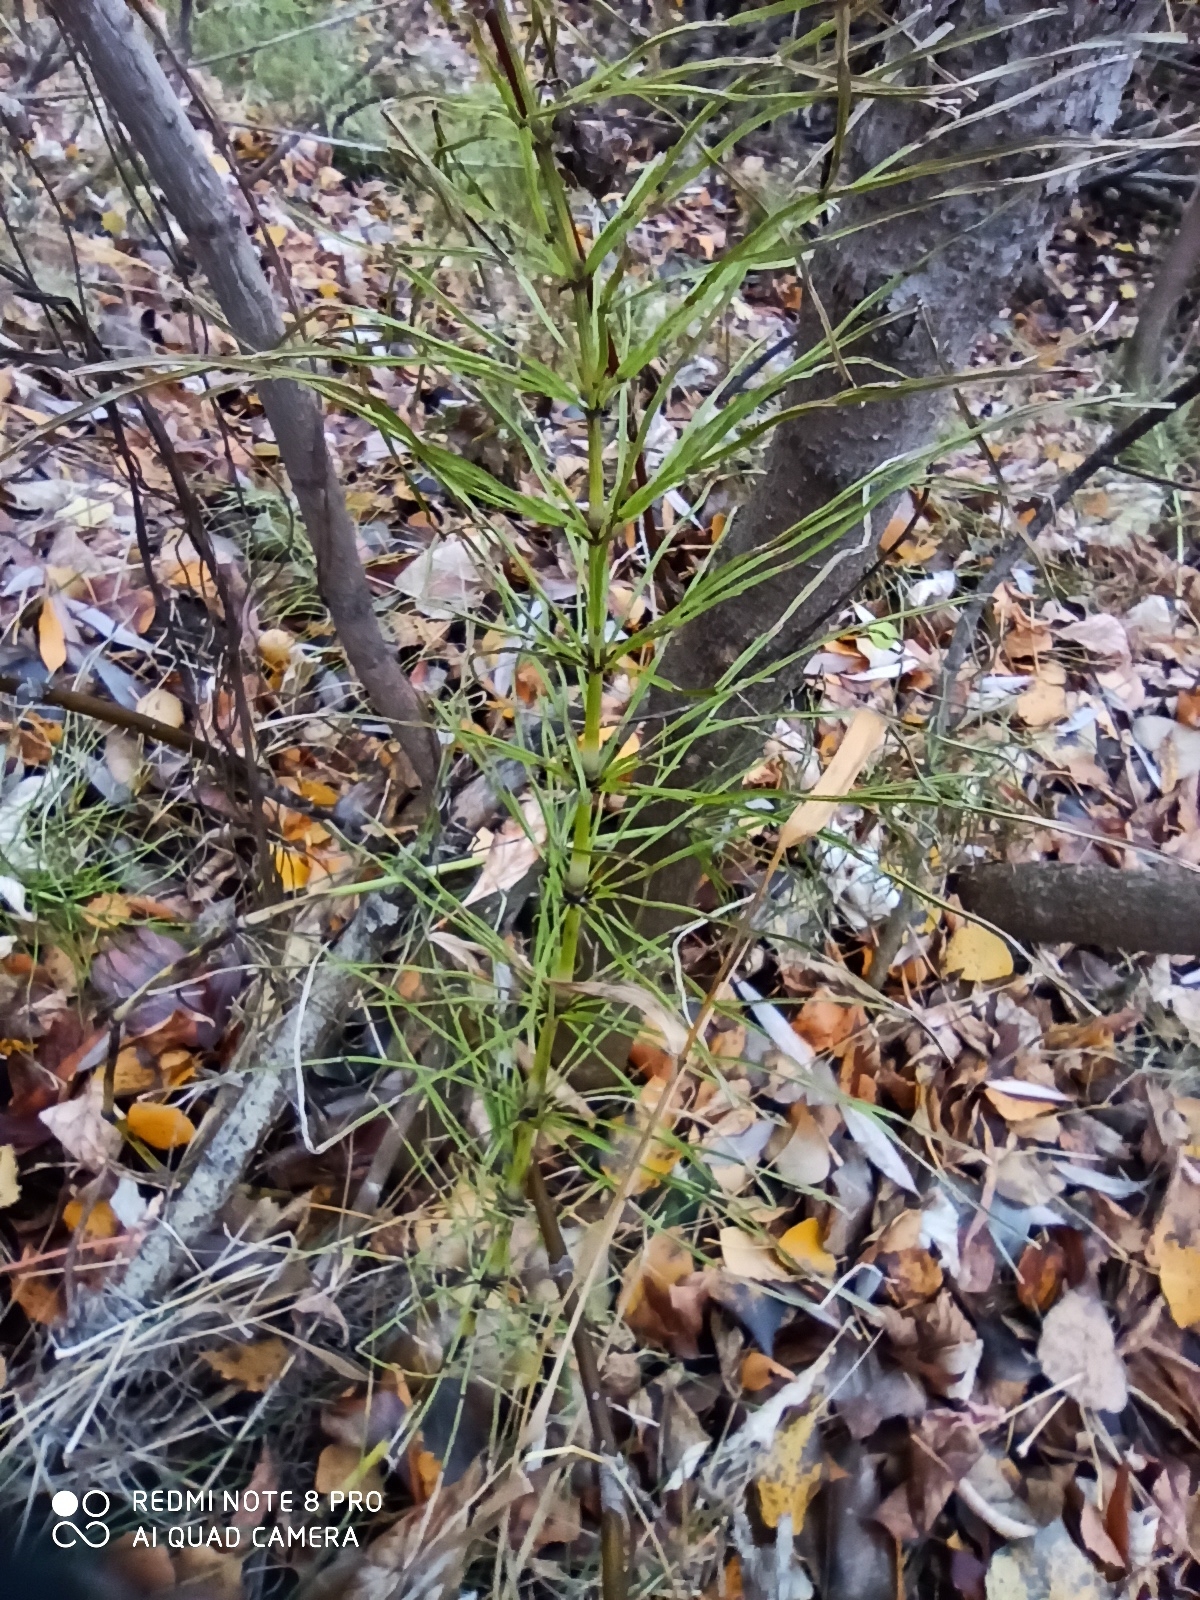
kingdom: Plantae
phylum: Tracheophyta
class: Polypodiopsida
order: Equisetales
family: Equisetaceae
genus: Equisetum
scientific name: Equisetum arvense
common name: Field horsetail
